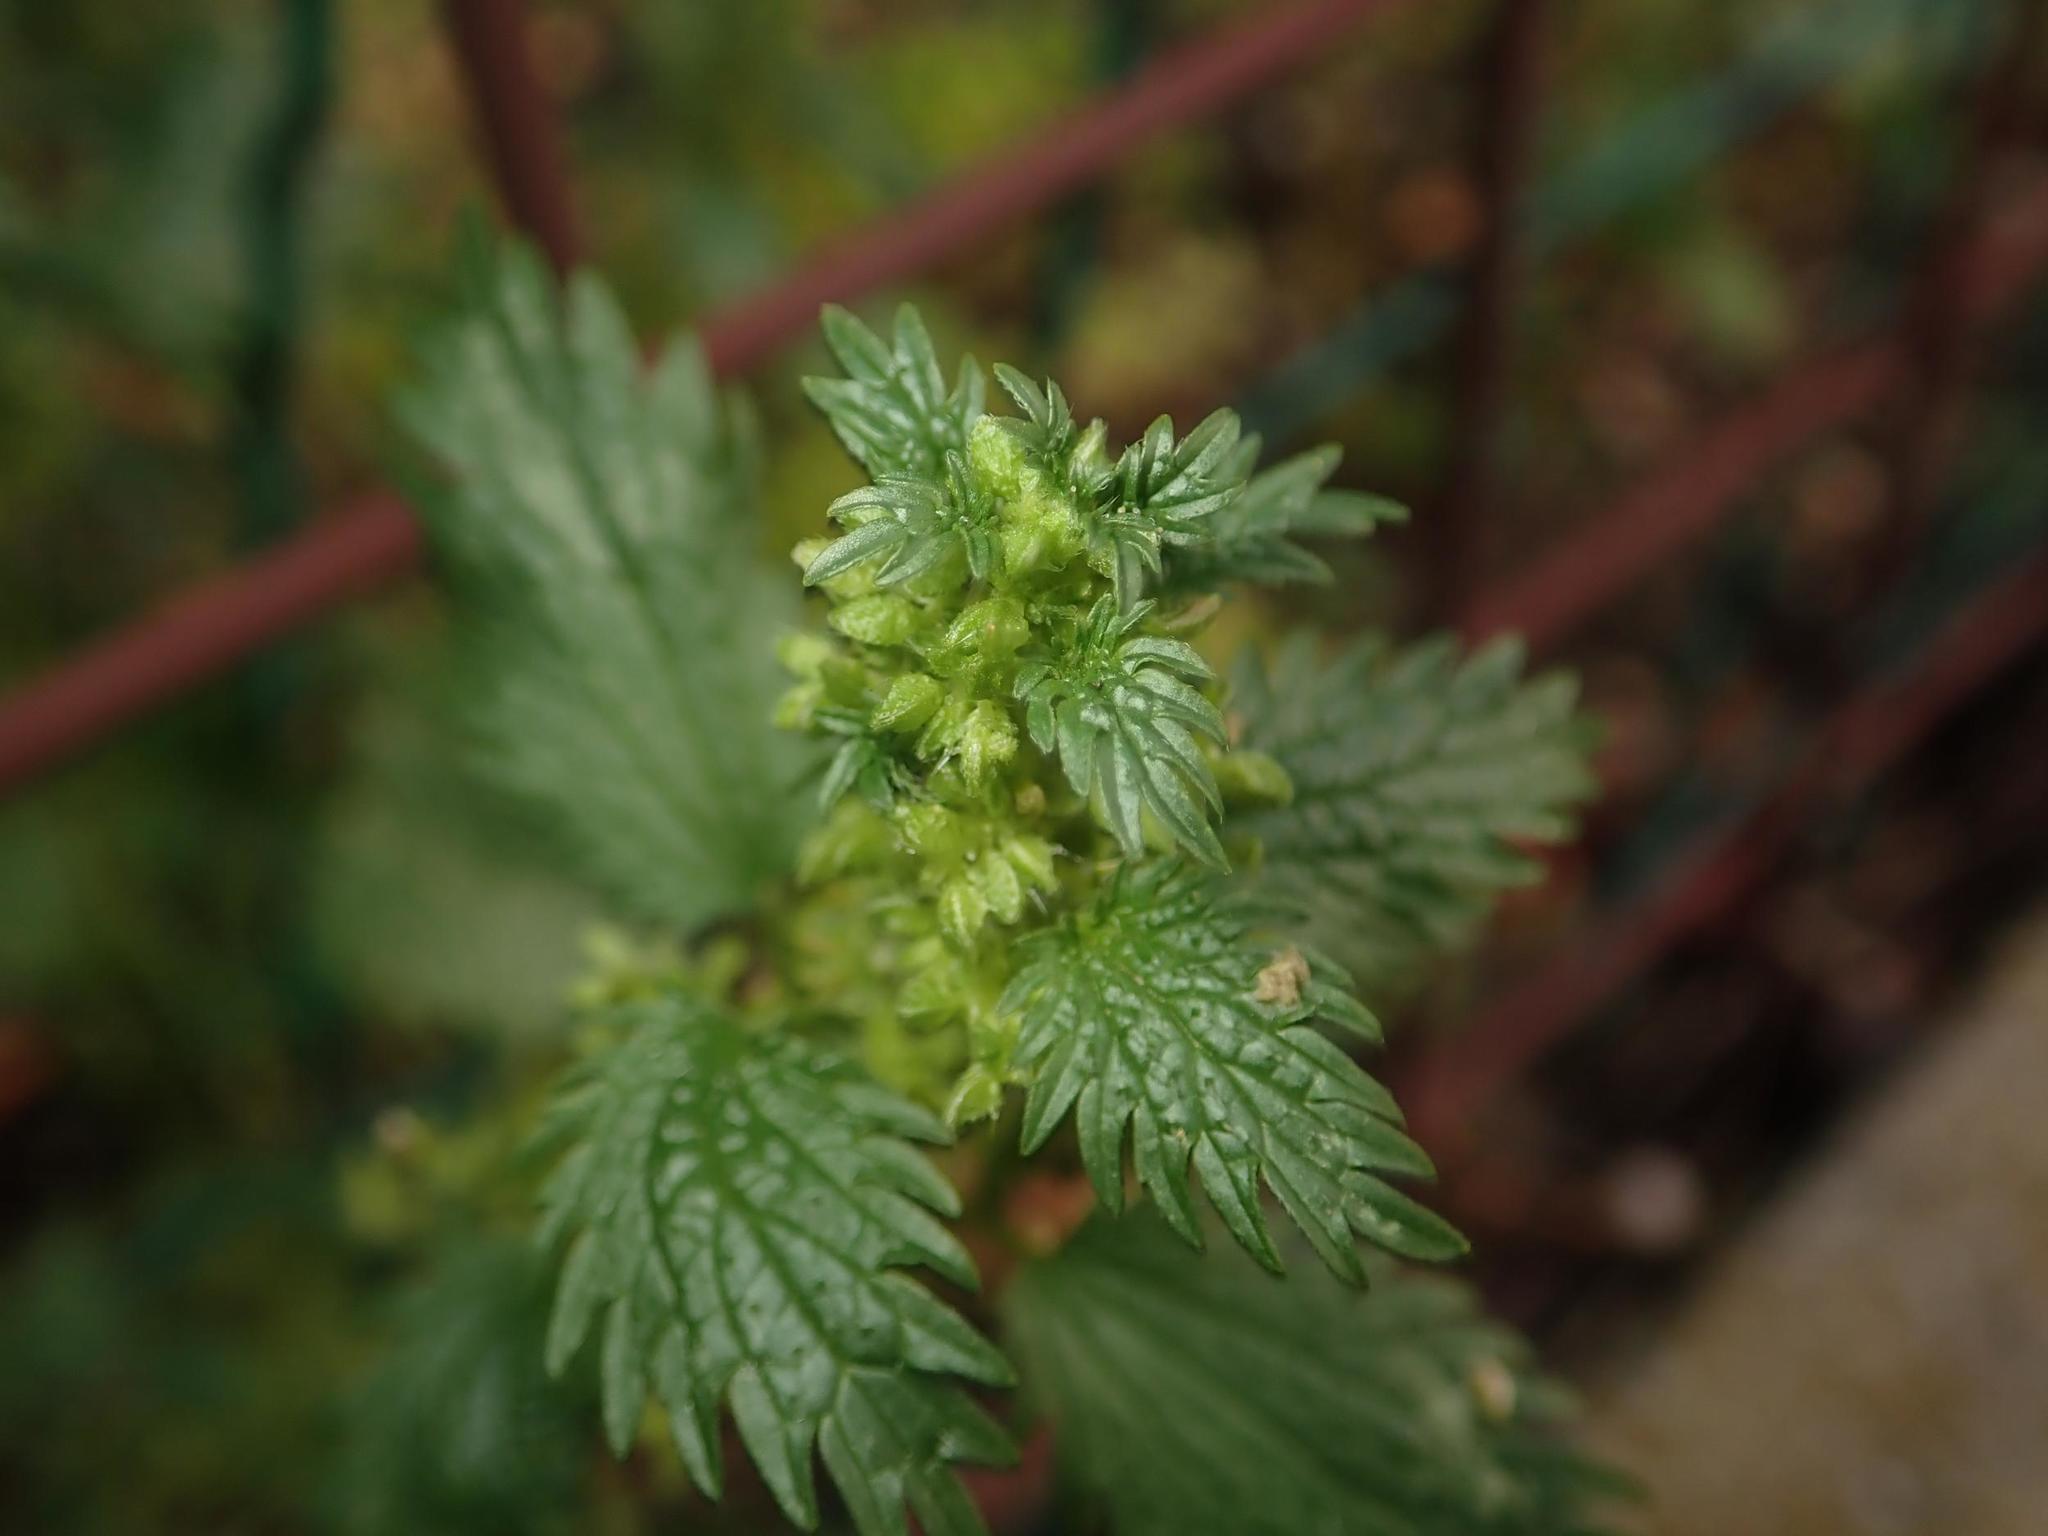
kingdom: Plantae
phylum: Tracheophyta
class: Magnoliopsida
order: Rosales
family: Urticaceae
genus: Urtica
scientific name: Urtica urens
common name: Dwarf nettle
